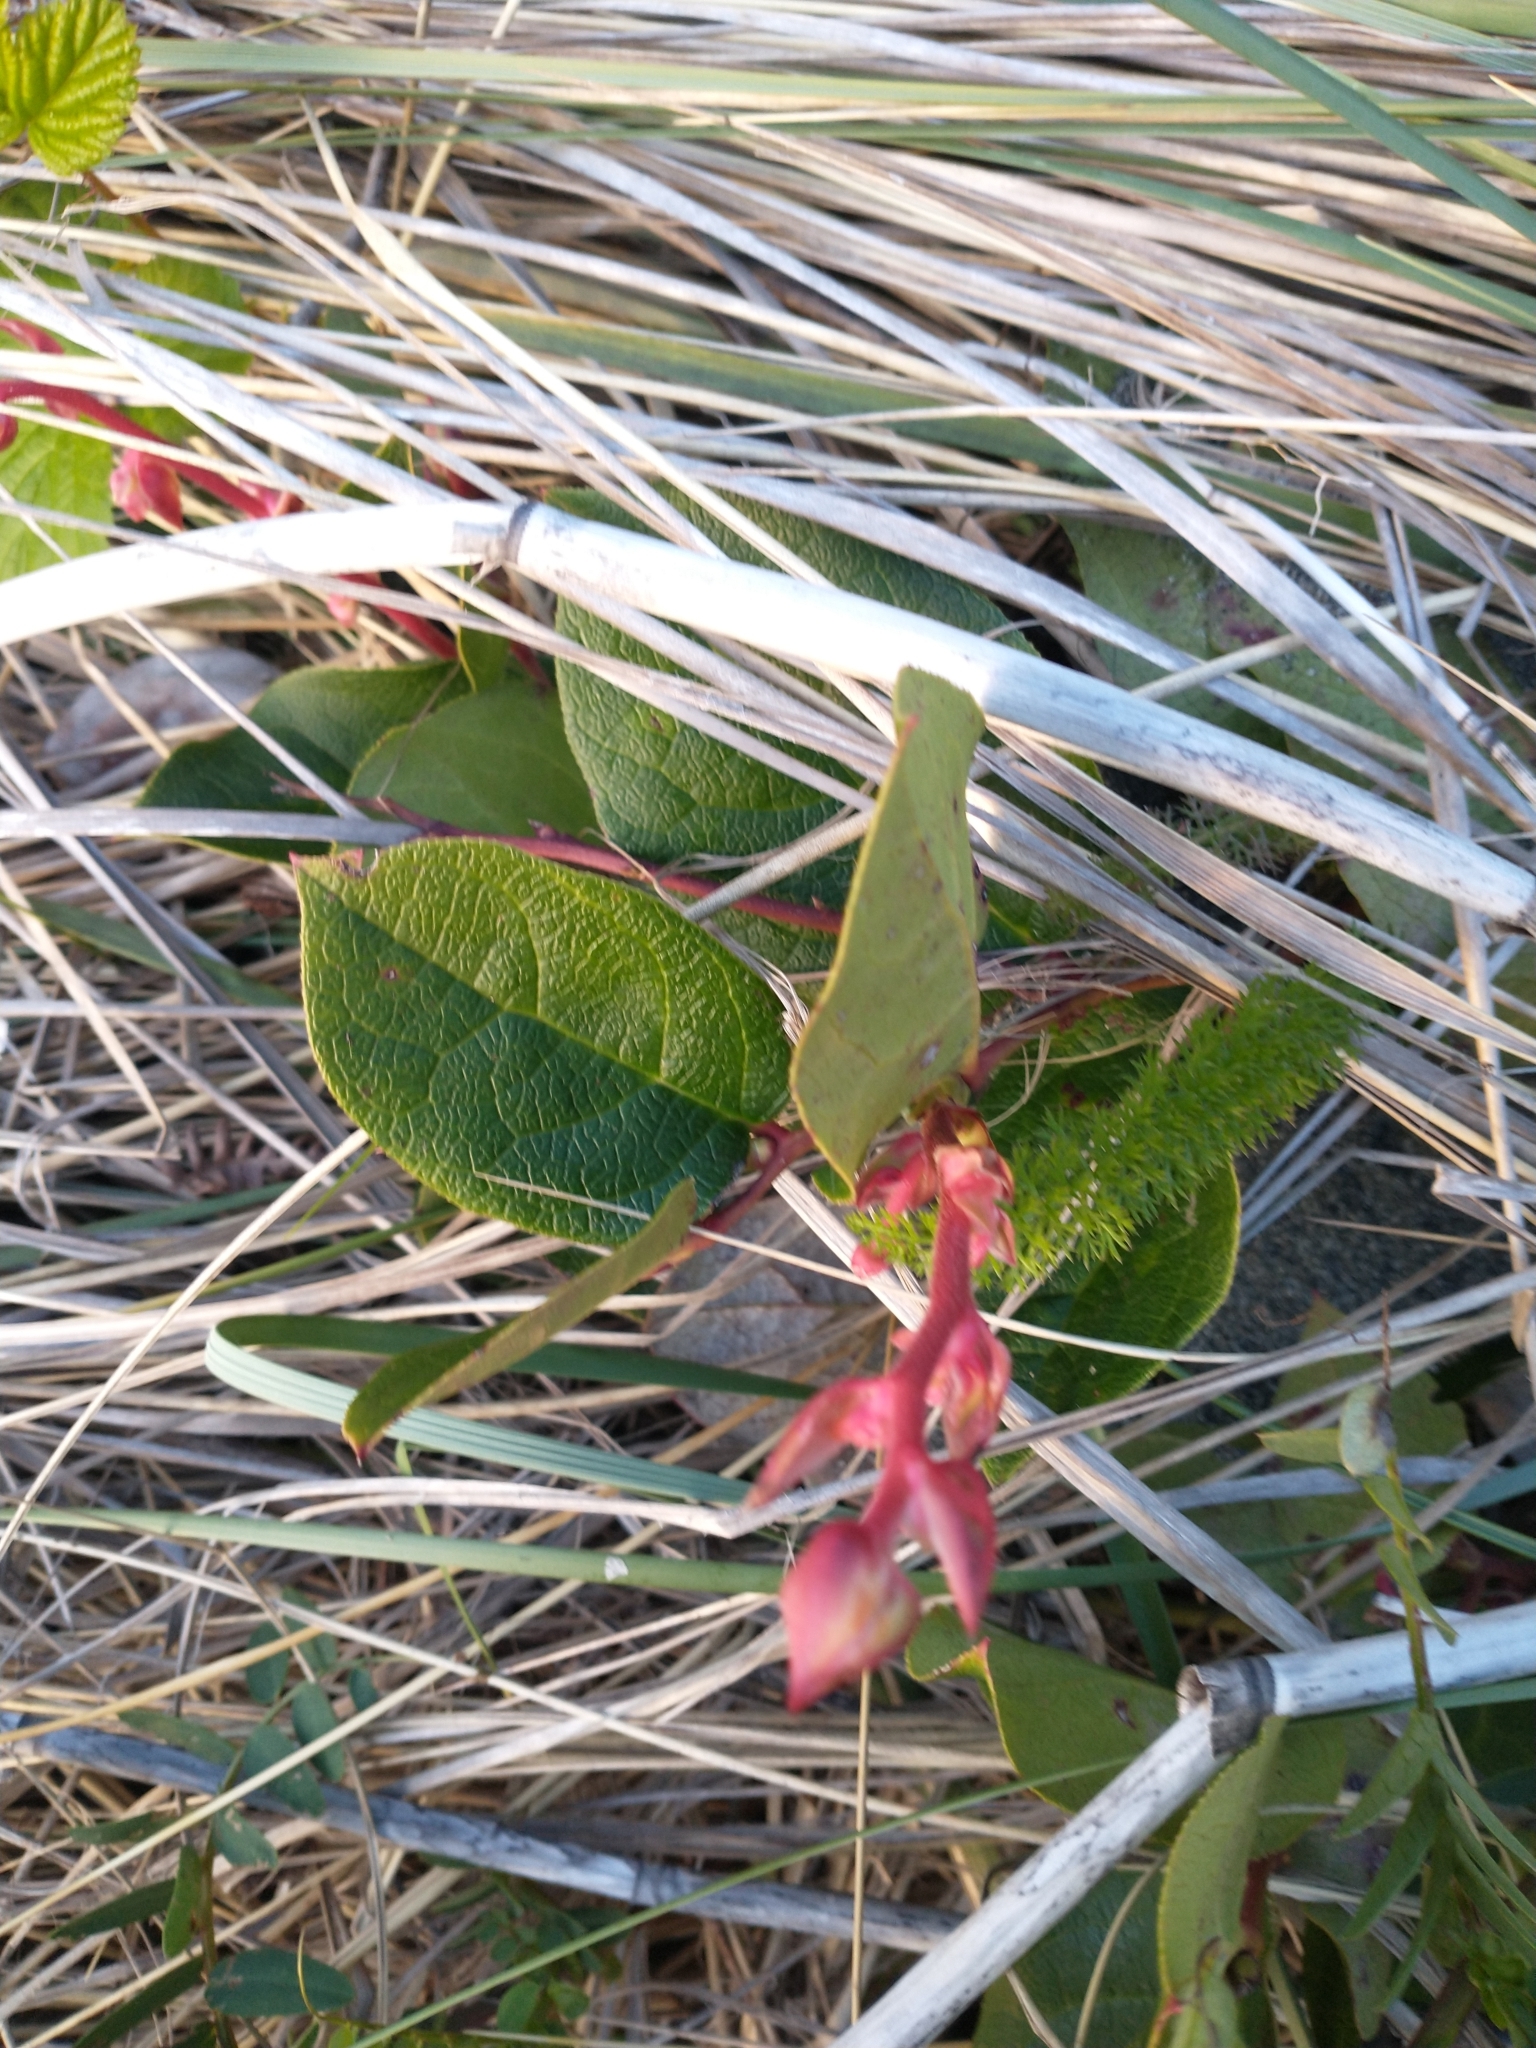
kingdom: Plantae
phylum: Tracheophyta
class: Magnoliopsida
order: Ericales
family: Ericaceae
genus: Gaultheria
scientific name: Gaultheria shallon
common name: Shallon
